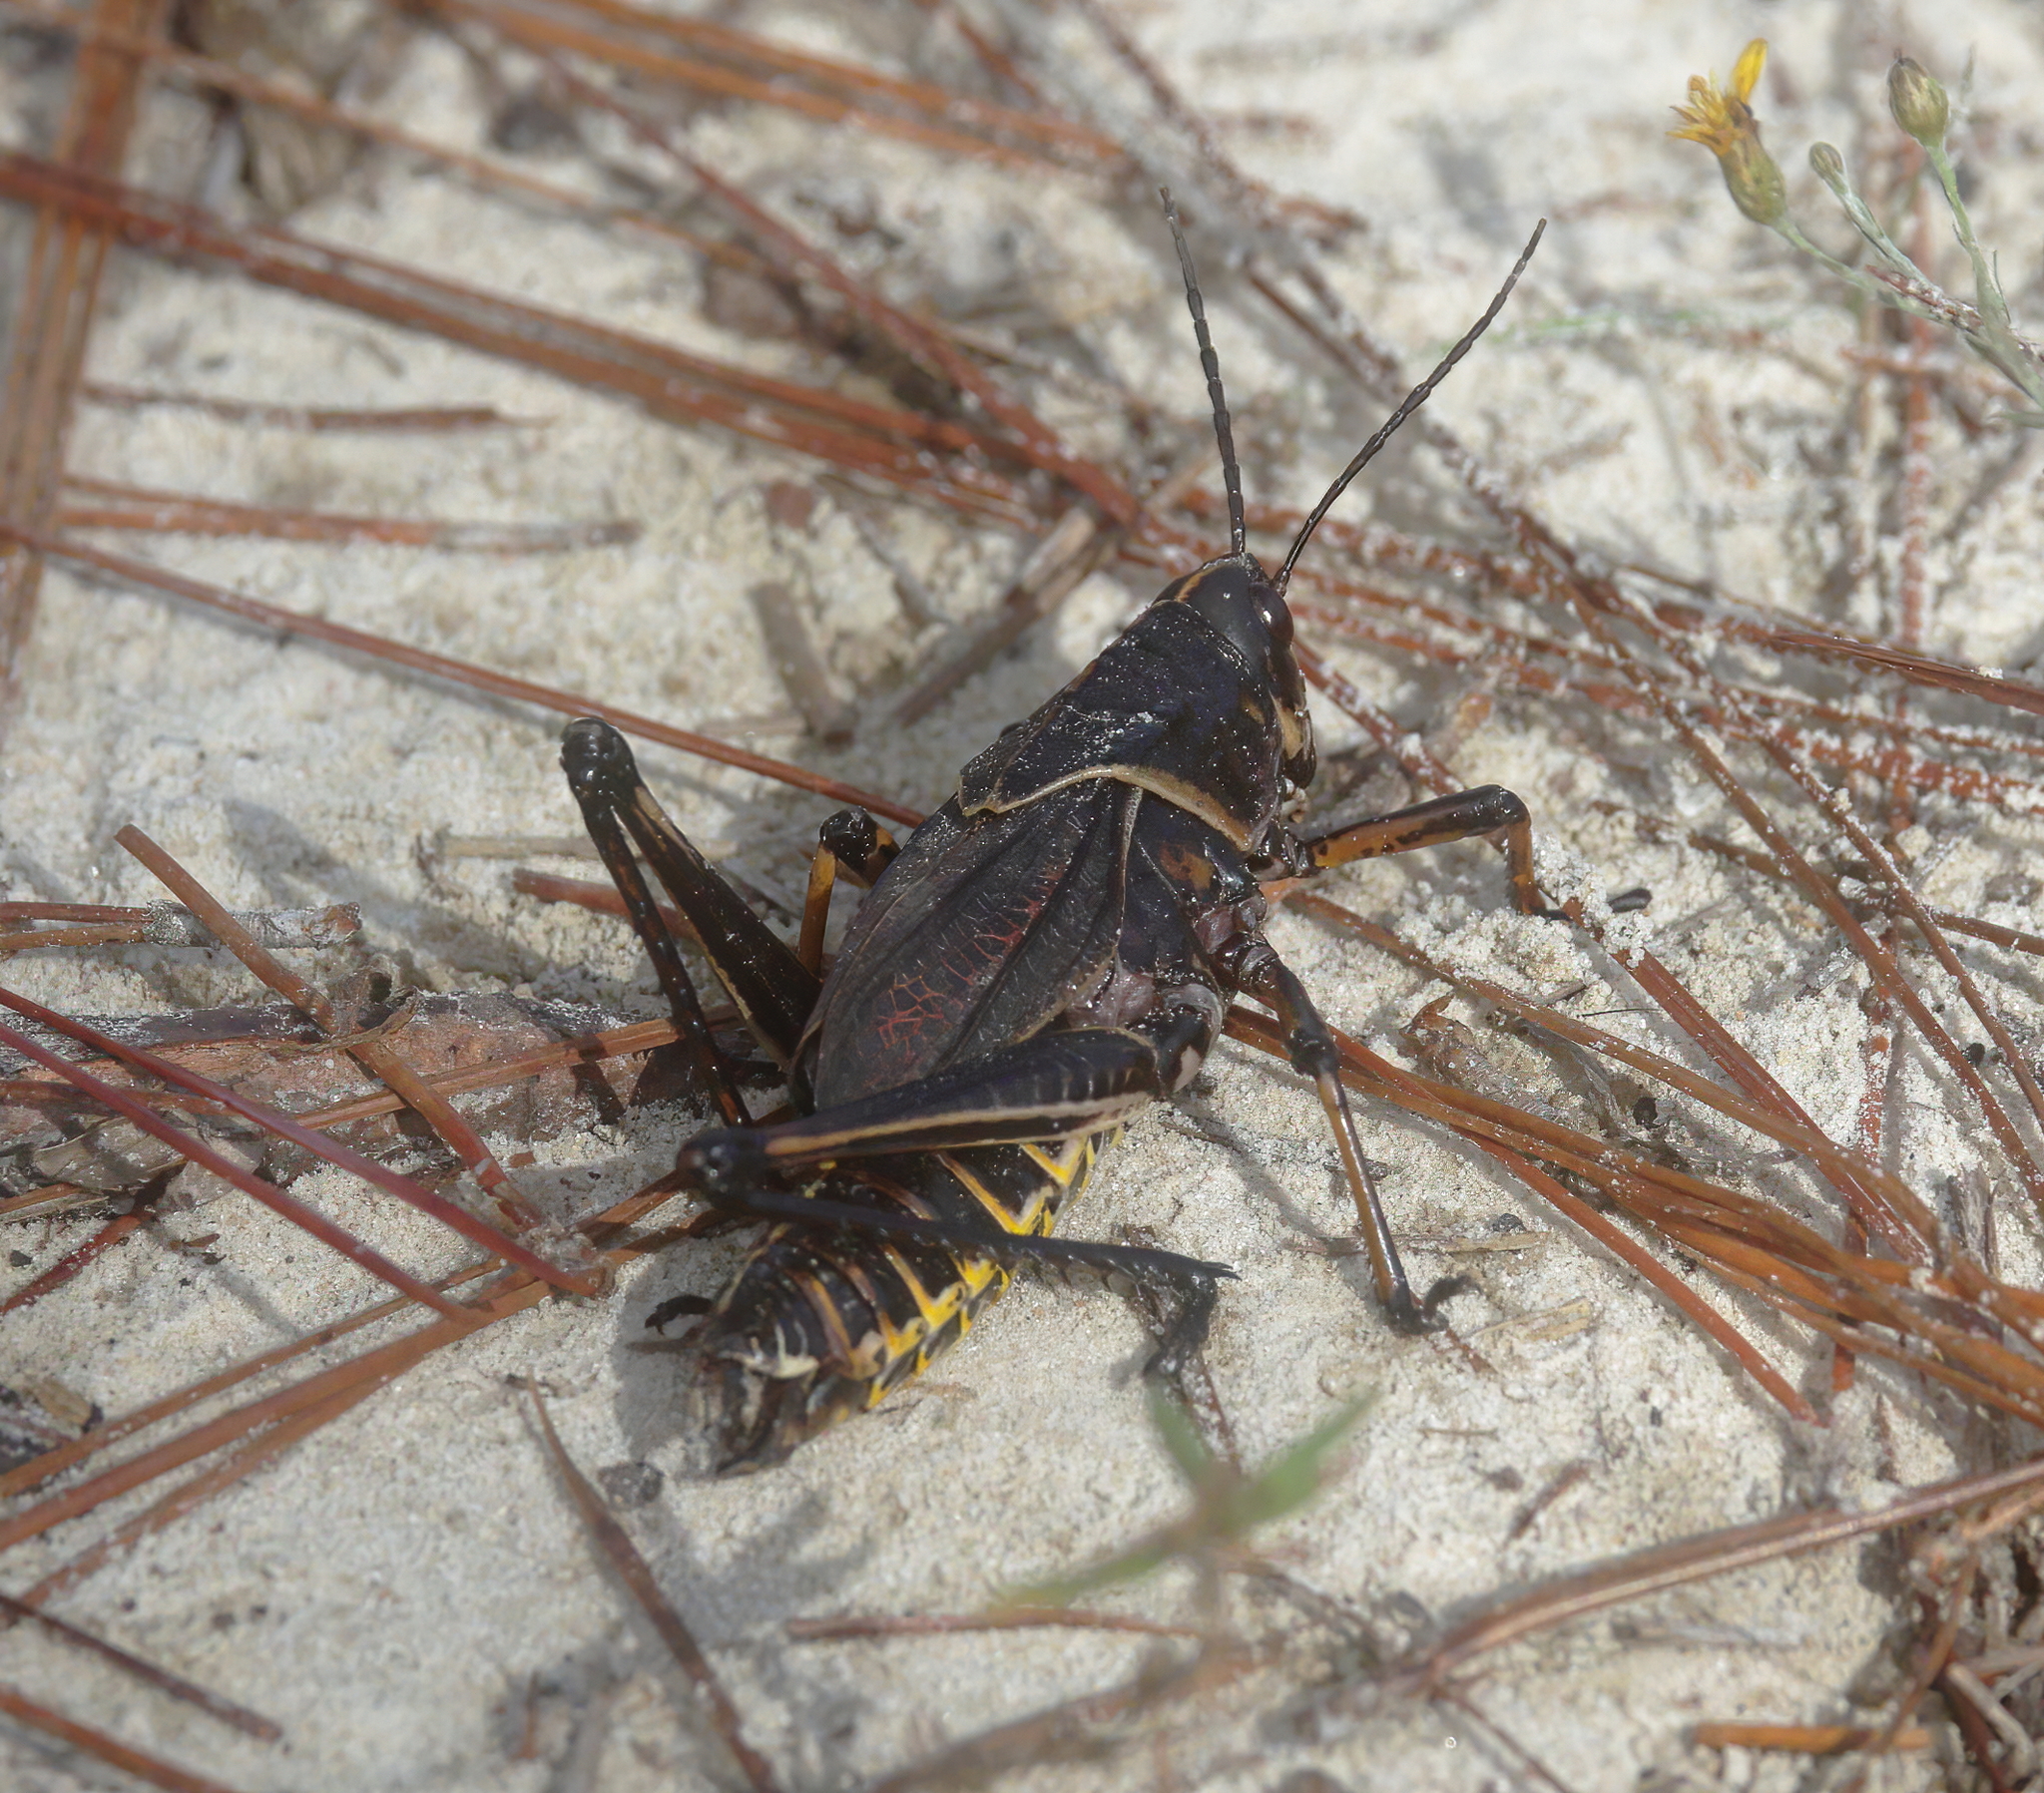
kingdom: Animalia
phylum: Arthropoda
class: Insecta
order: Orthoptera
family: Romaleidae
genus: Romalea
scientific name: Romalea microptera
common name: Eastern lubber grasshopper
